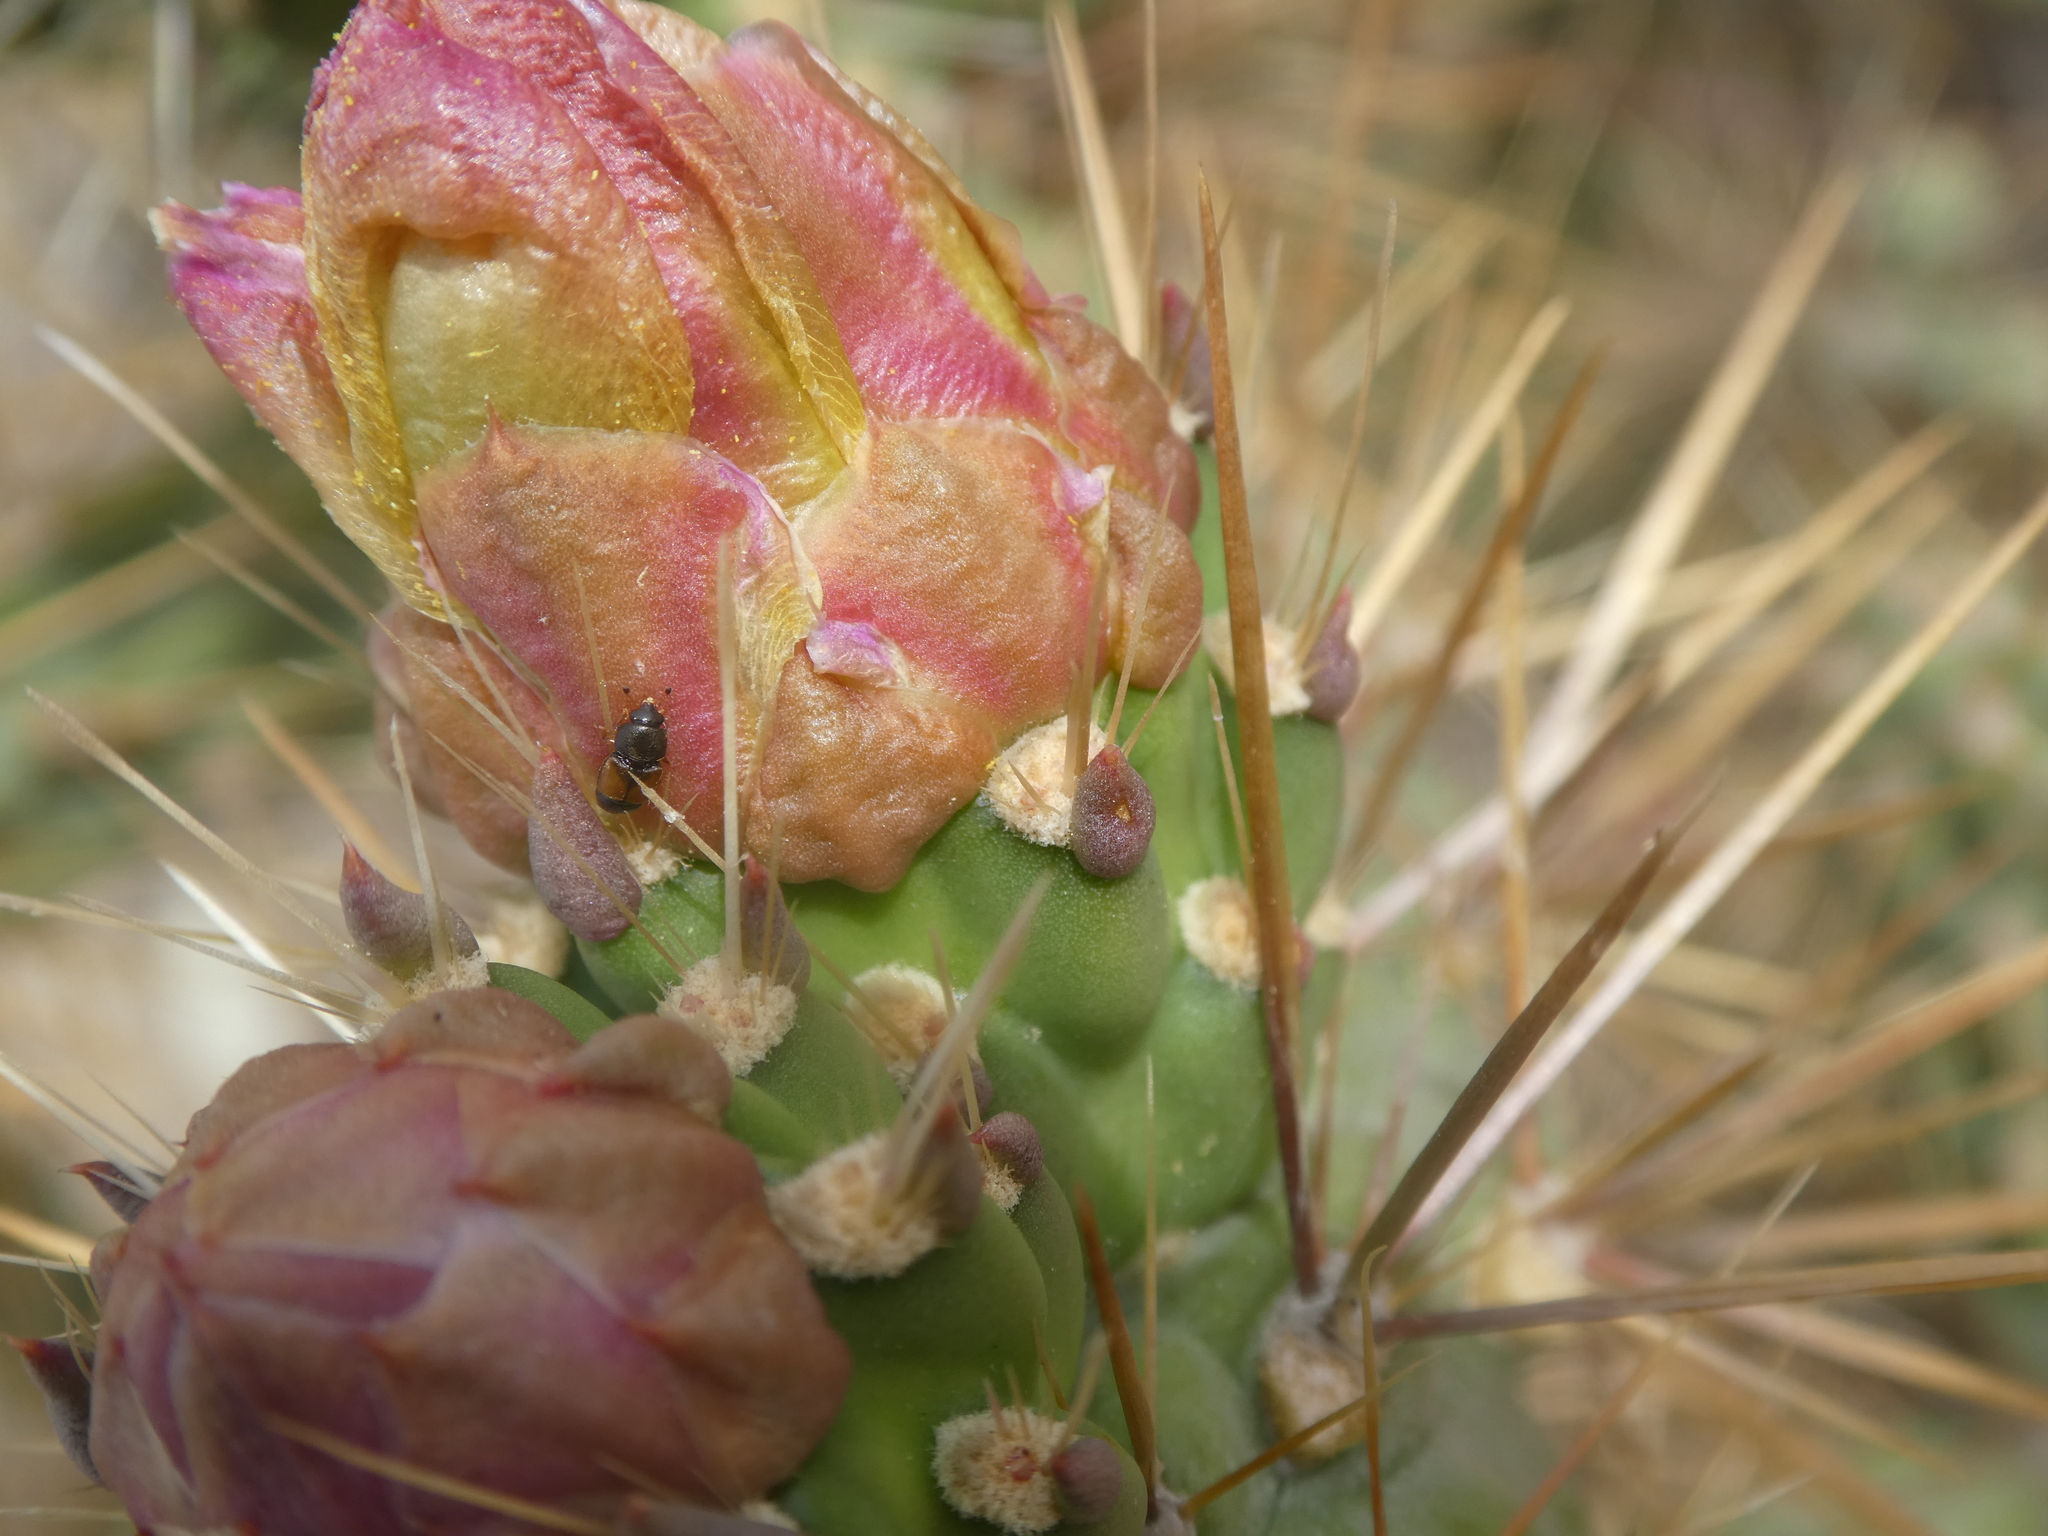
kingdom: Animalia
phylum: Arthropoda
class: Insecta
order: Coleoptera
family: Nitidulidae
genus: Nitops
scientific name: Nitops pallipennis
